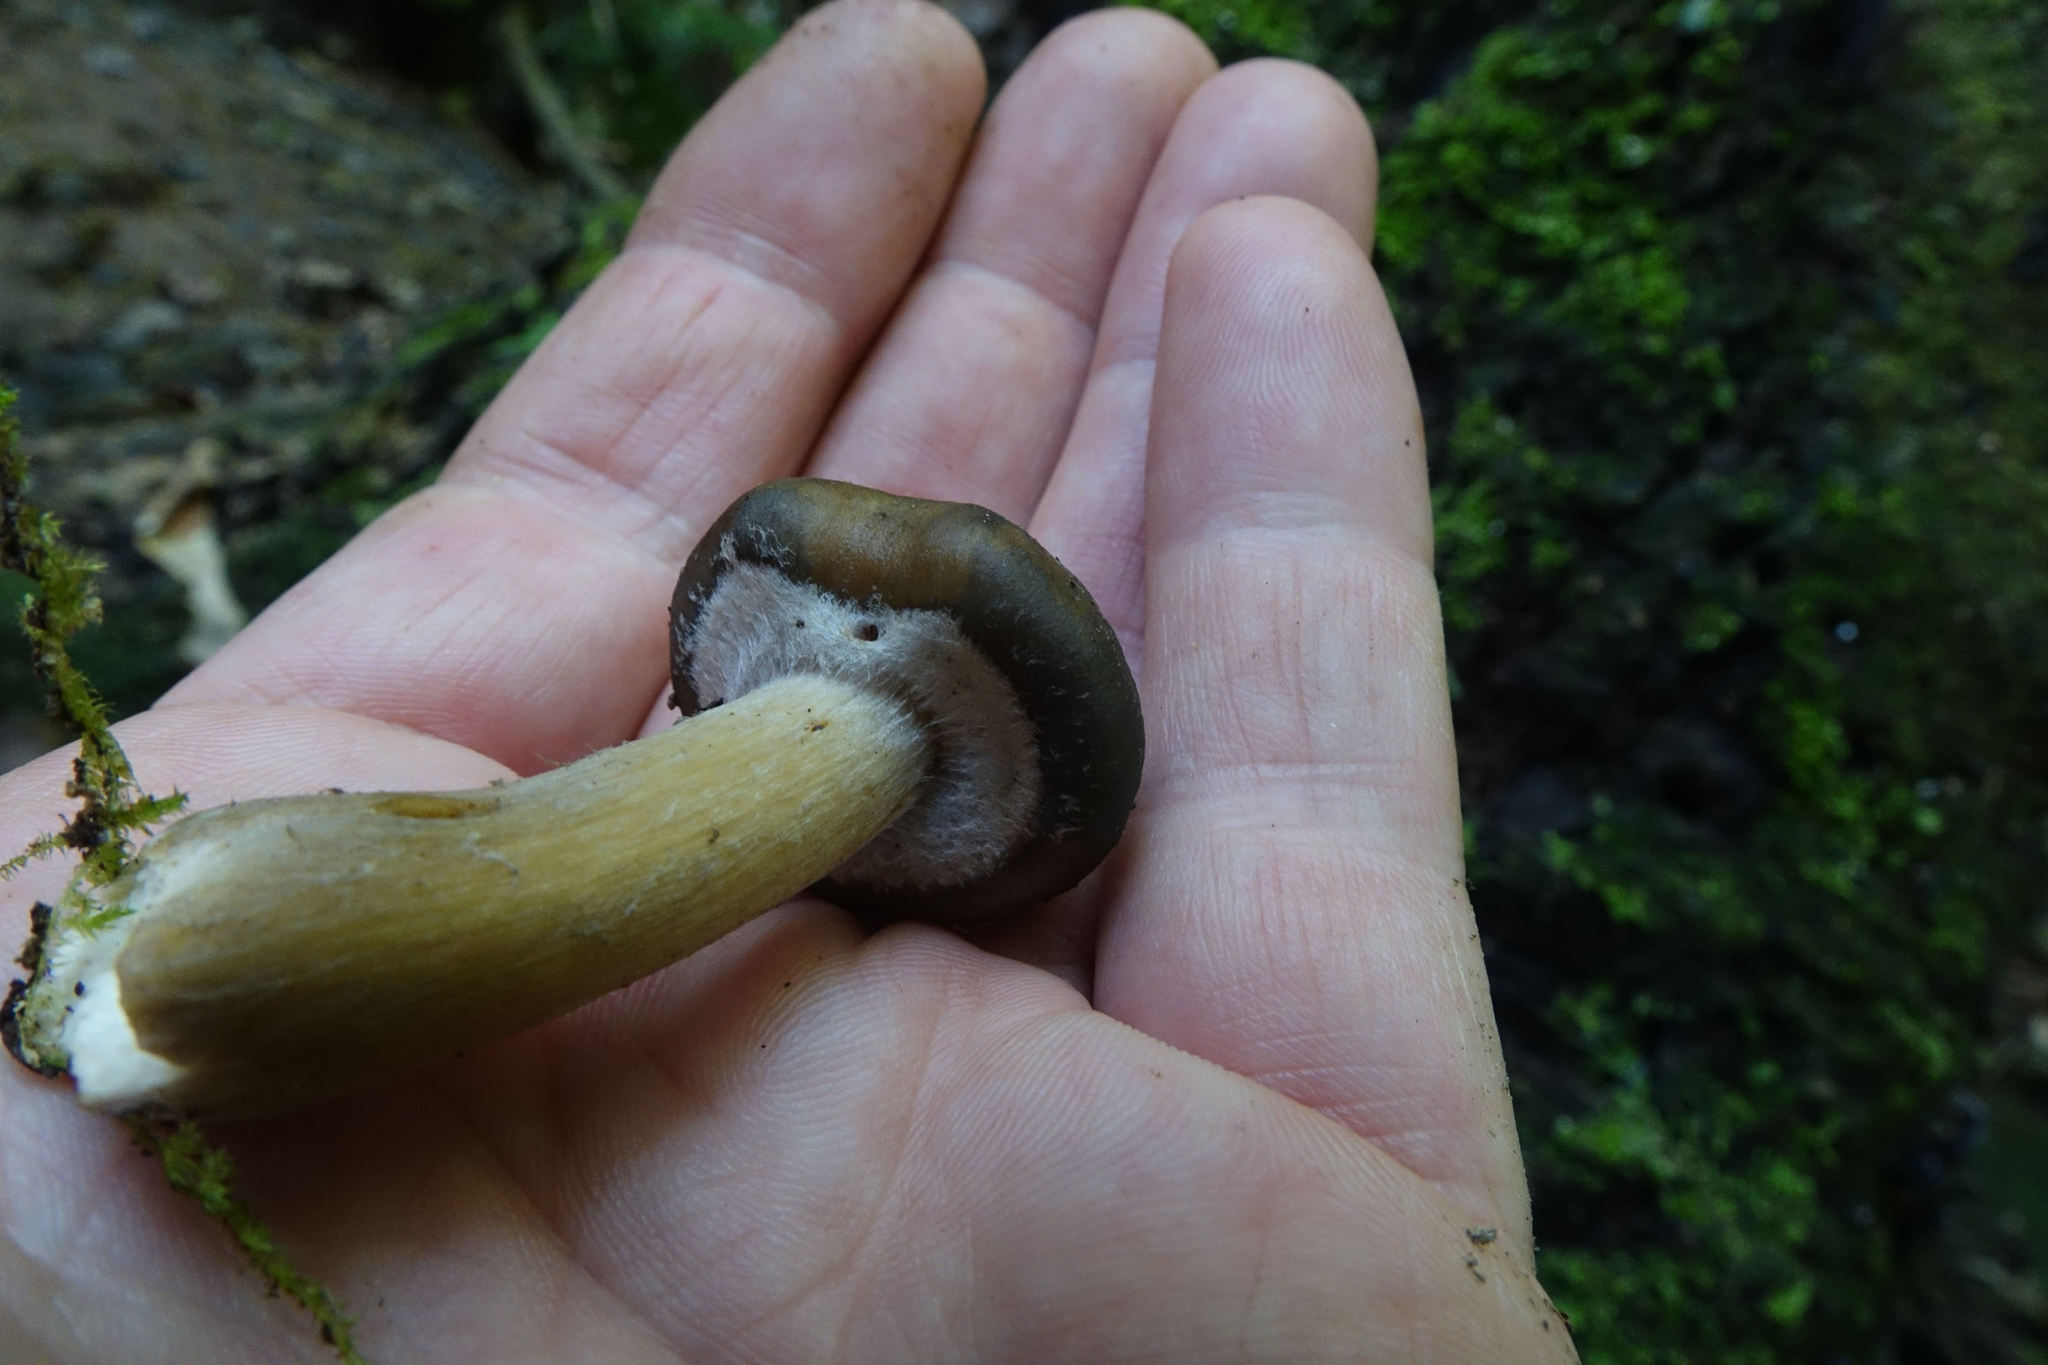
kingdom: Fungi
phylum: Basidiomycota
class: Agaricomycetes
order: Agaricales
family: Physalacriaceae
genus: Armillaria
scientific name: Armillaria novae-zelandiae
